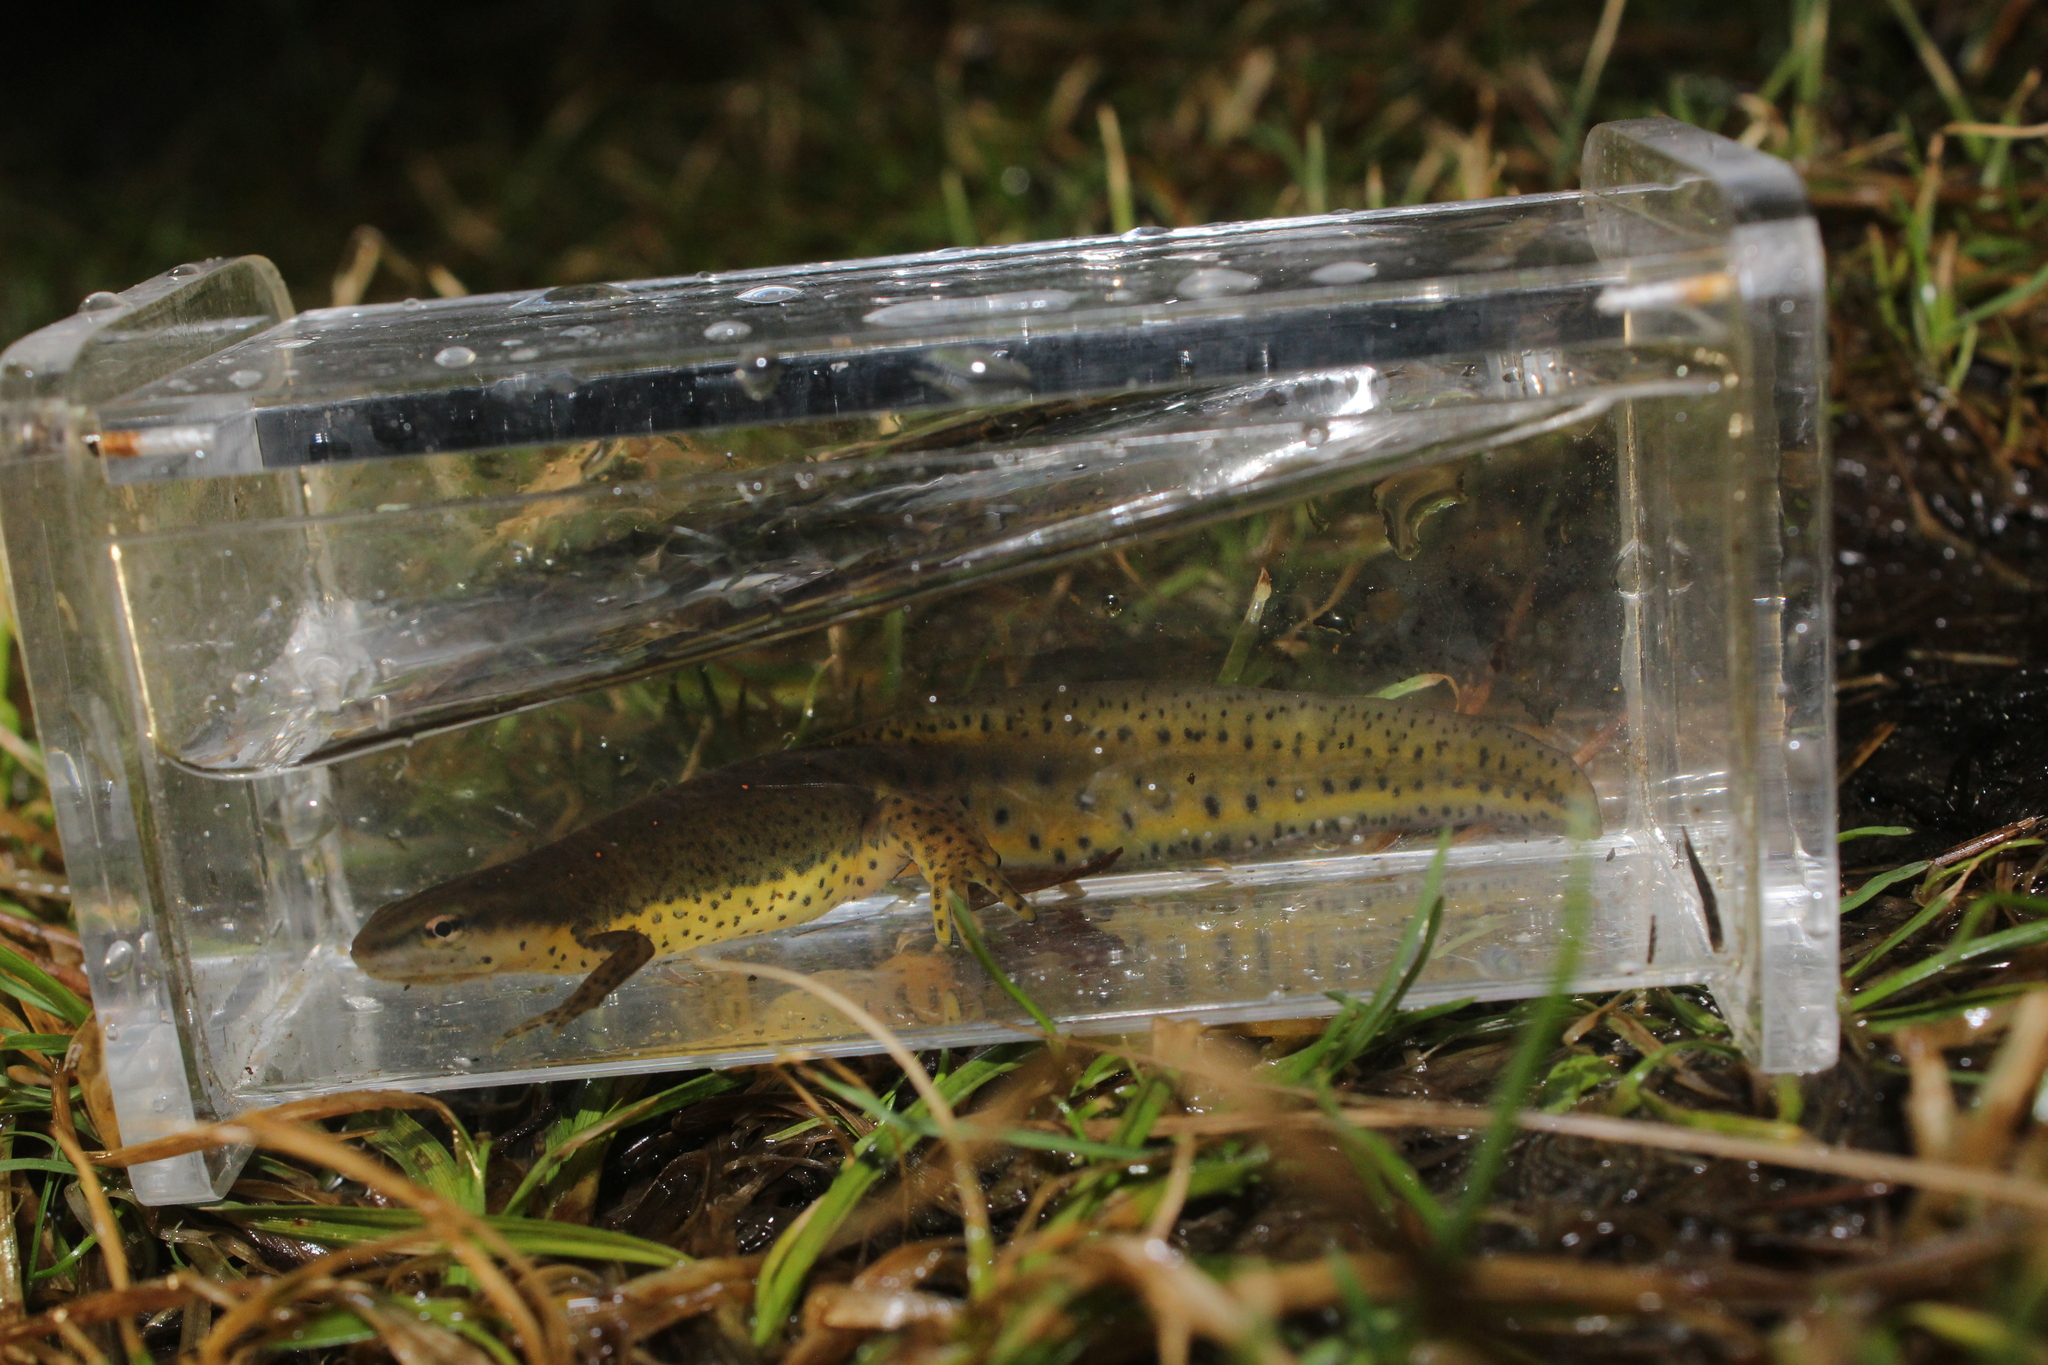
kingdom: Animalia
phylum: Chordata
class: Amphibia
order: Caudata
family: Salamandridae
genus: Notophthalmus
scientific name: Notophthalmus viridescens
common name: Eastern newt
